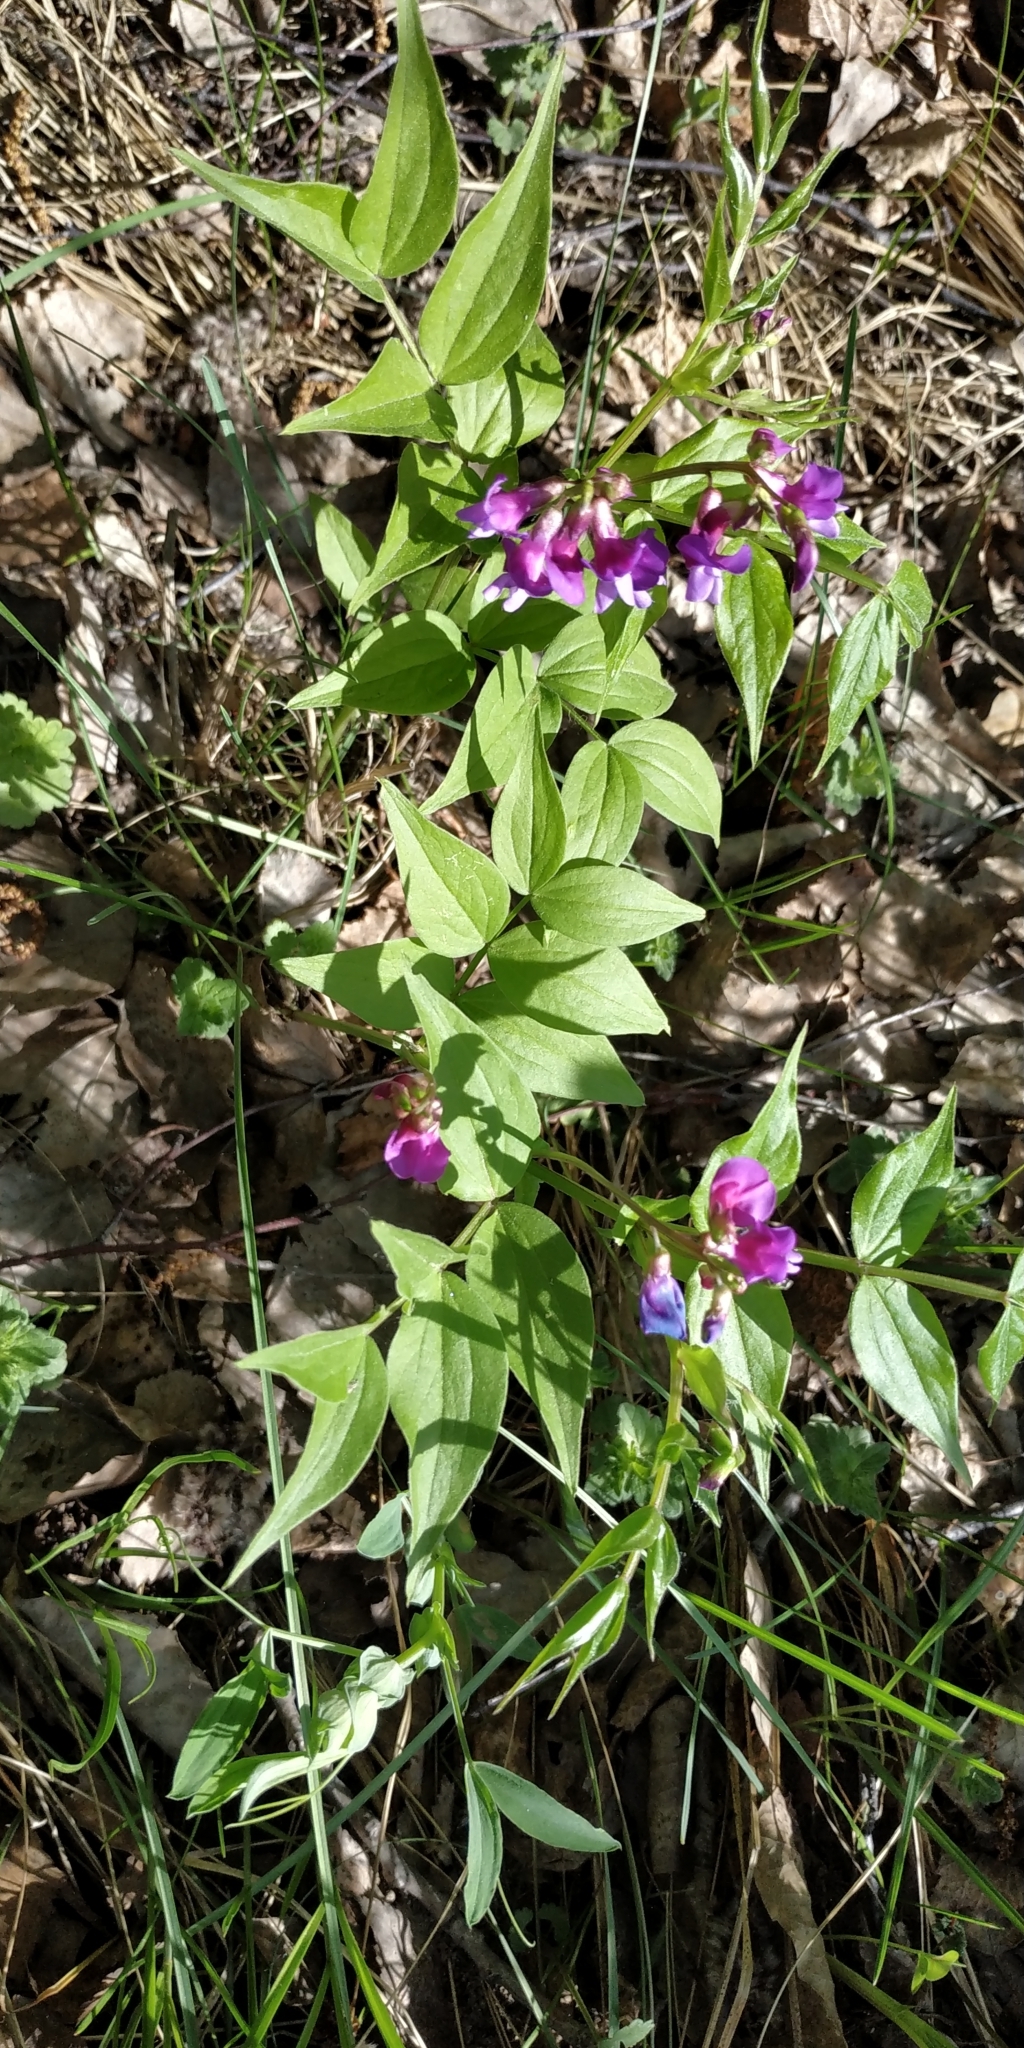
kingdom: Plantae
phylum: Tracheophyta
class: Magnoliopsida
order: Fabales
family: Fabaceae
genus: Lathyrus
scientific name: Lathyrus vernus
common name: Spring pea
